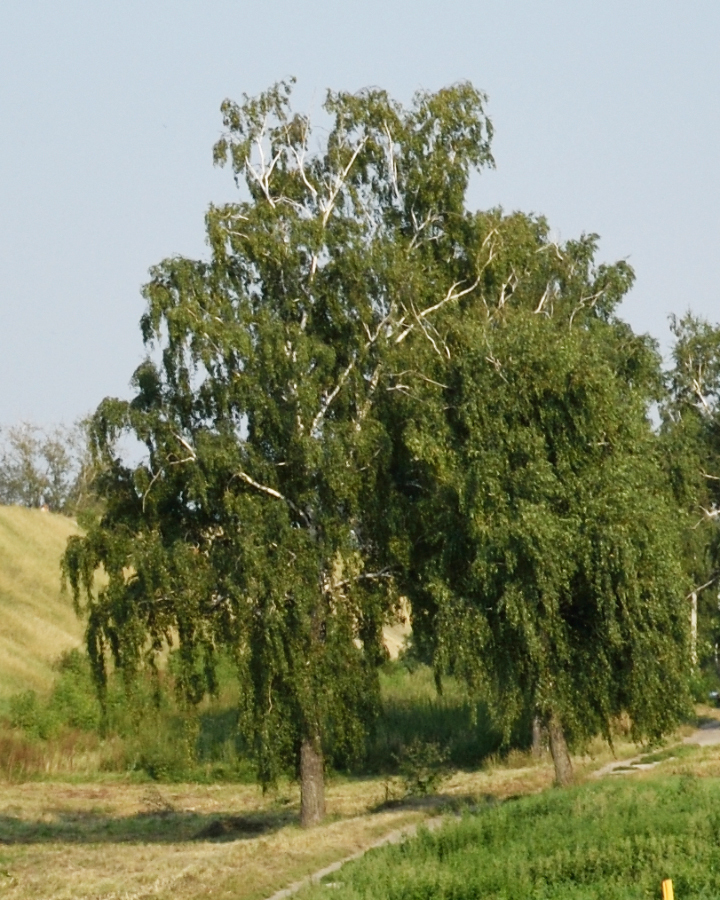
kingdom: Plantae
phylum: Tracheophyta
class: Magnoliopsida
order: Fagales
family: Betulaceae
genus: Betula
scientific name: Betula pendula
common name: Silver birch
